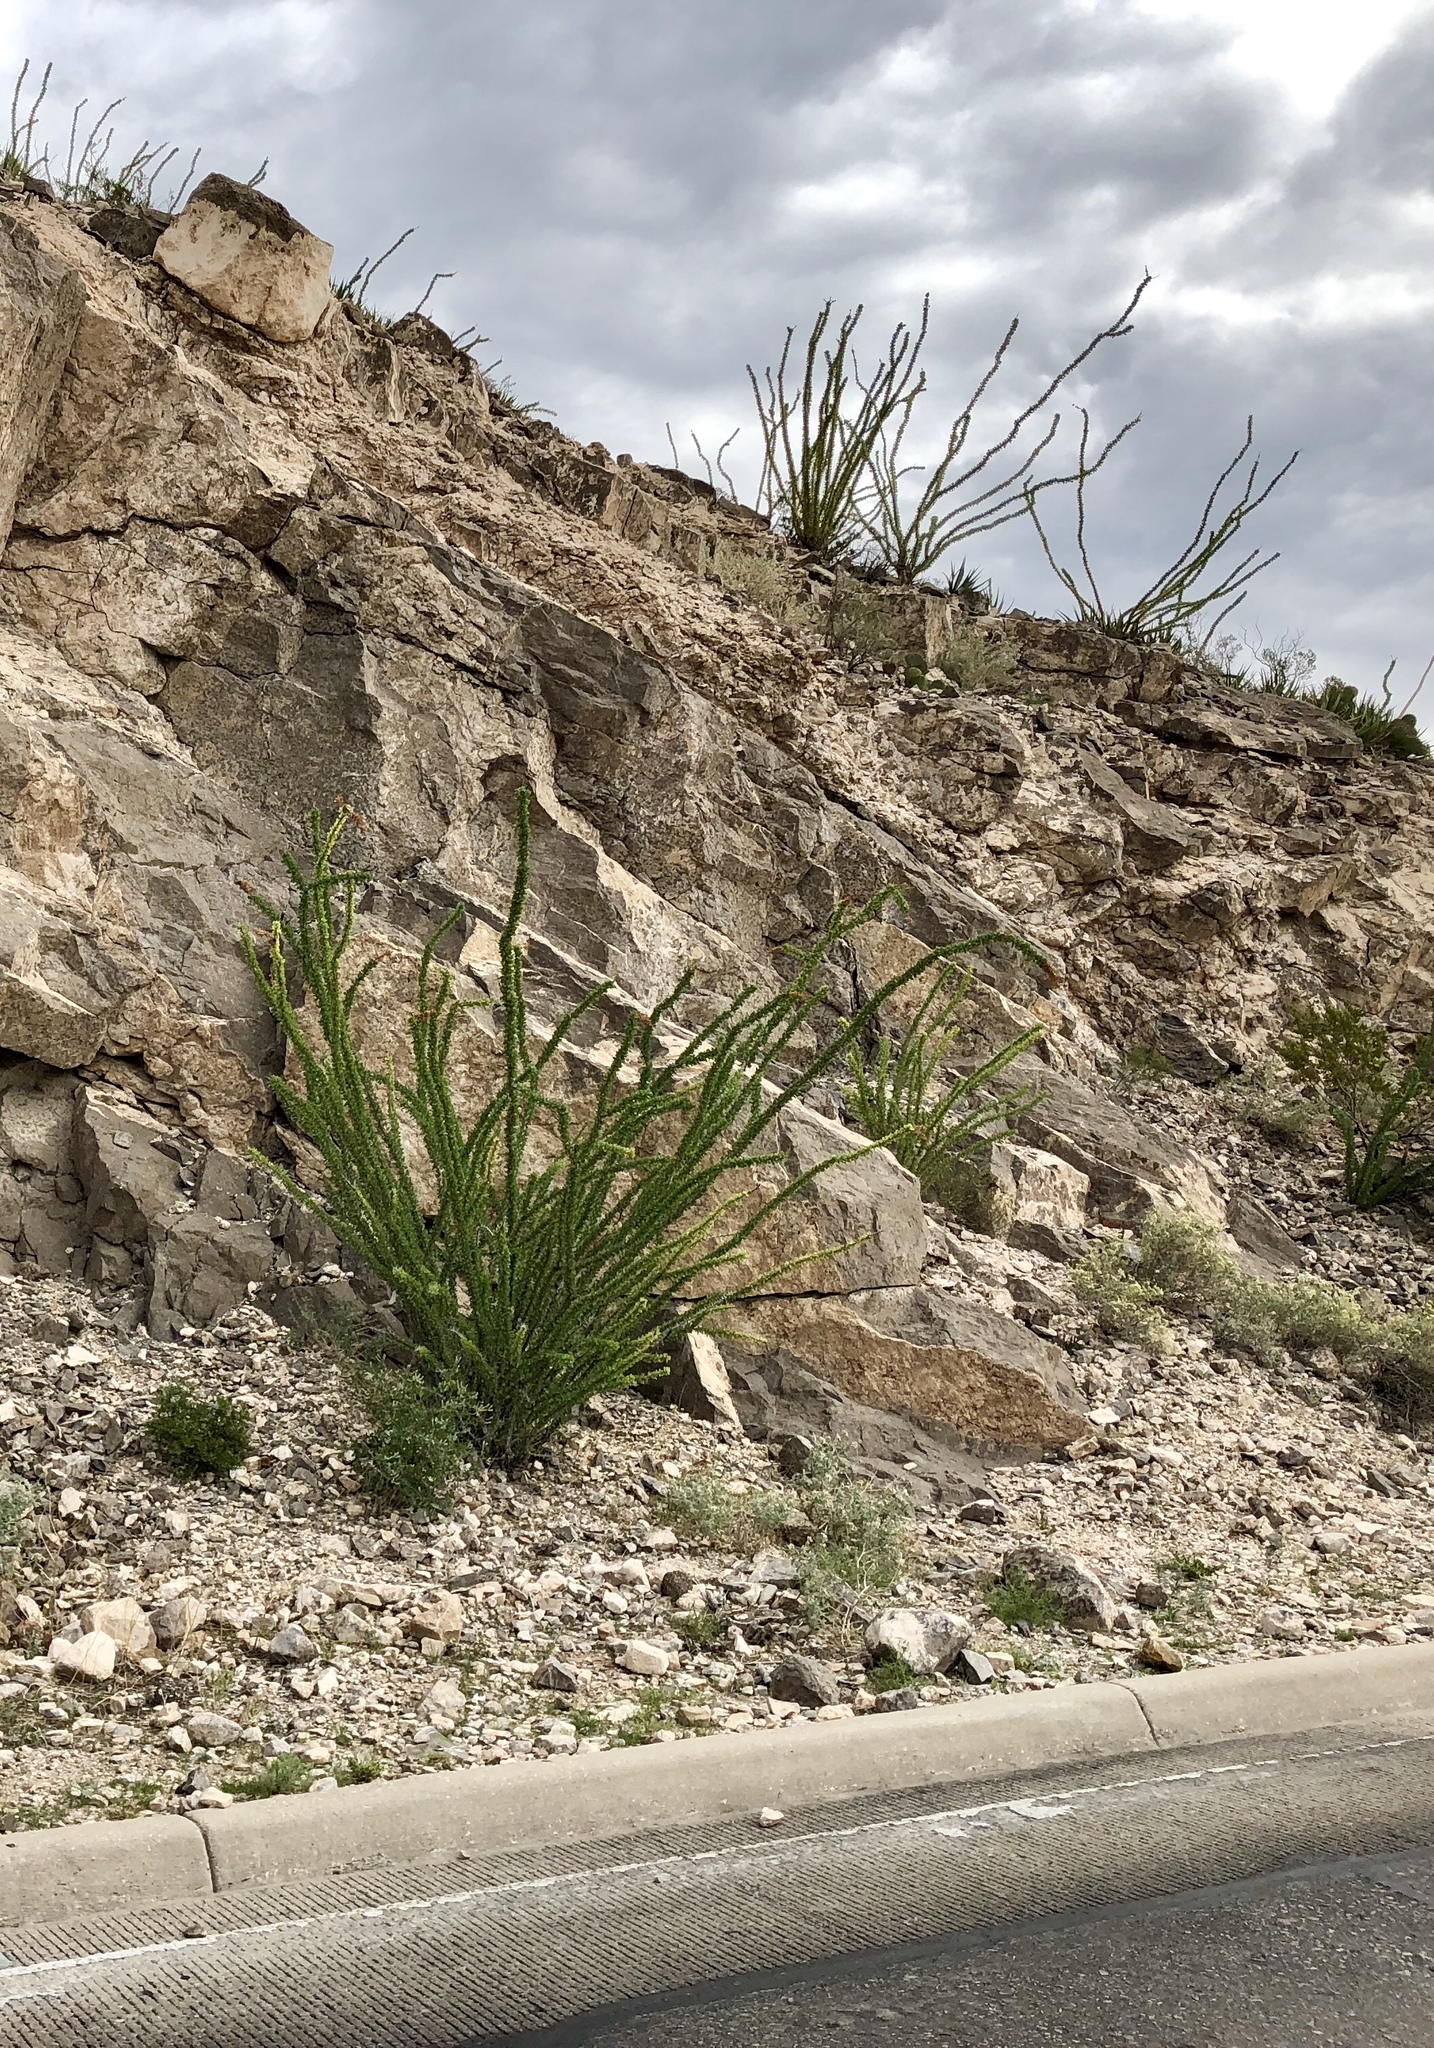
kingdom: Plantae
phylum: Tracheophyta
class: Magnoliopsida
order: Ericales
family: Fouquieriaceae
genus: Fouquieria
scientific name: Fouquieria splendens
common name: Vine-cactus
